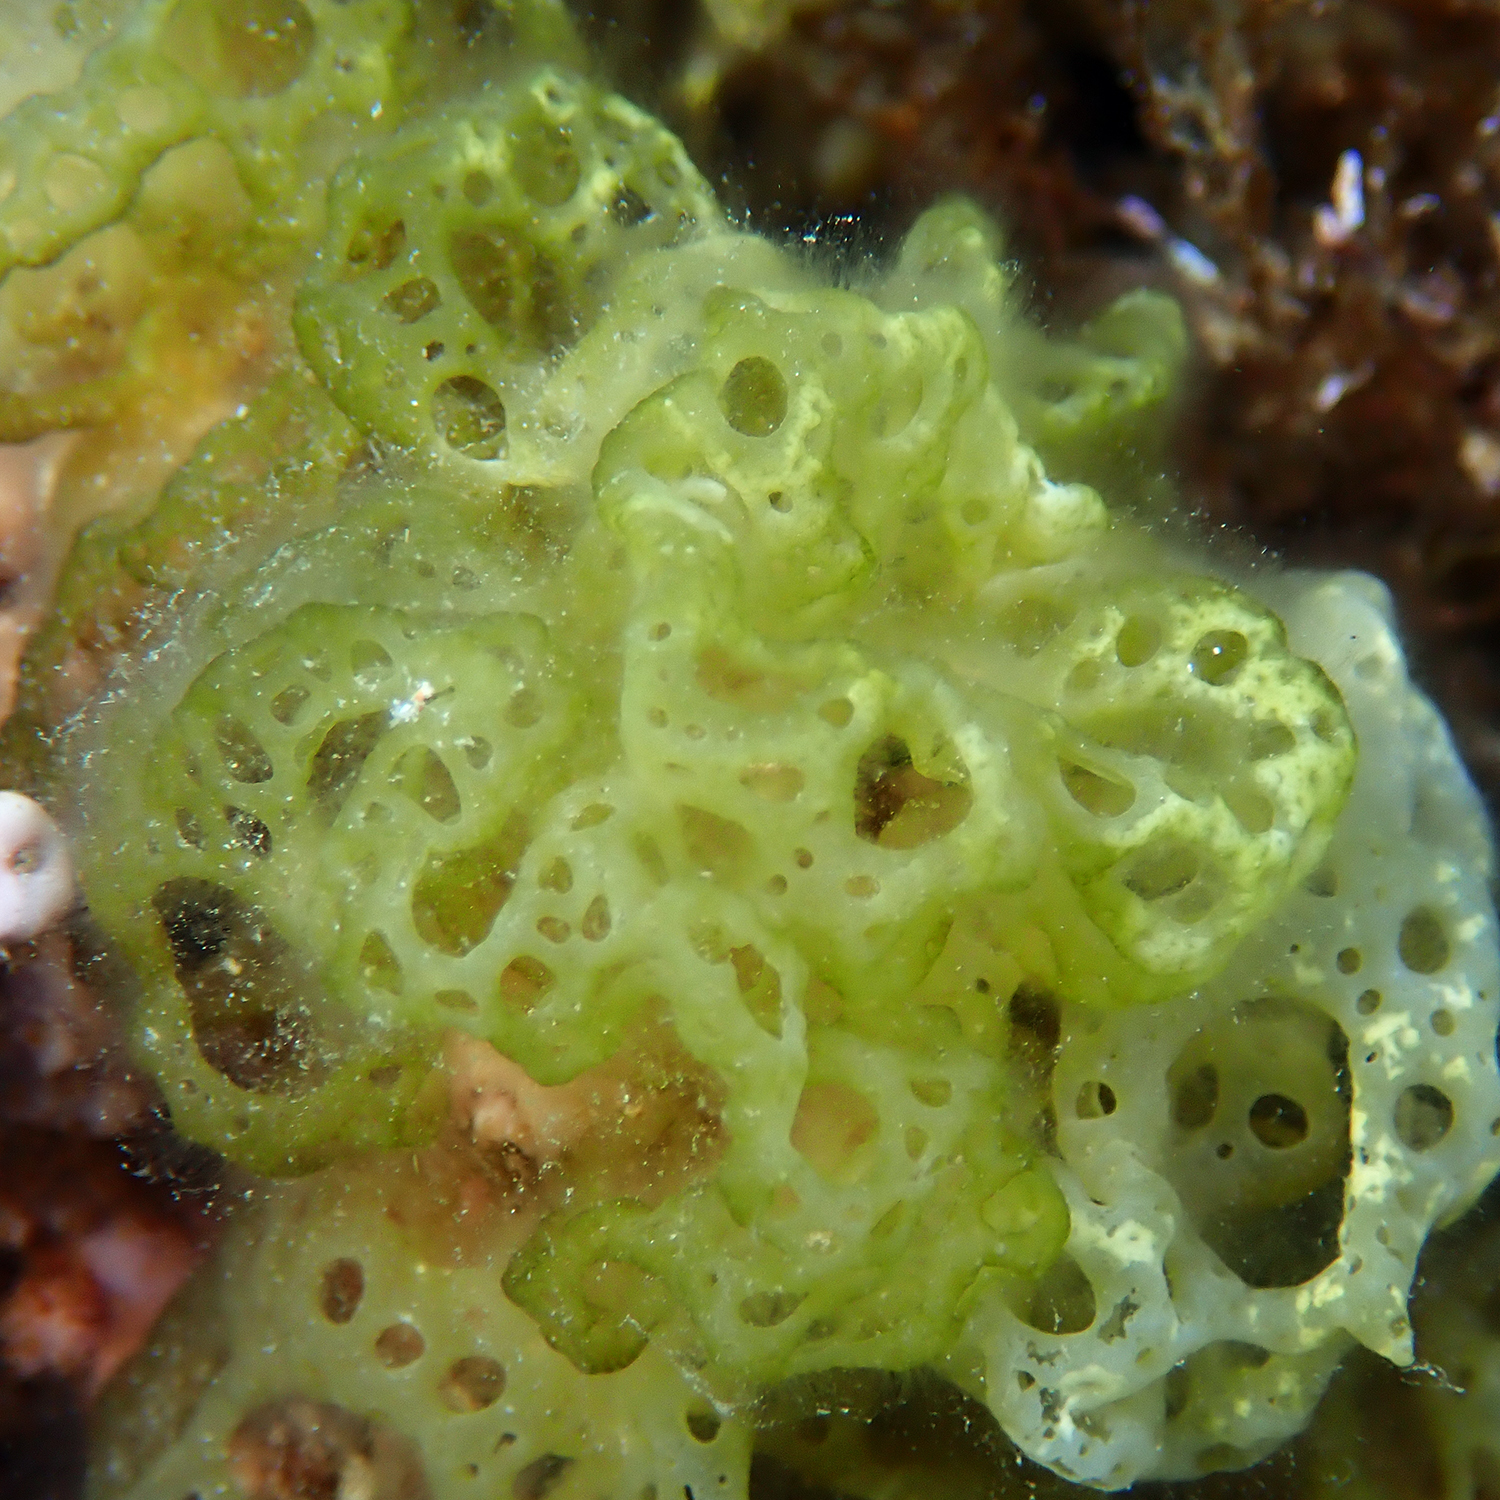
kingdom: Chromista
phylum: Ochrophyta
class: Phaeophyceae
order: Scytosiphonales
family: Scytosiphonaceae
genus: Hydroclathrus
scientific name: Hydroclathrus clathratus
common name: Swiss cheese algae
